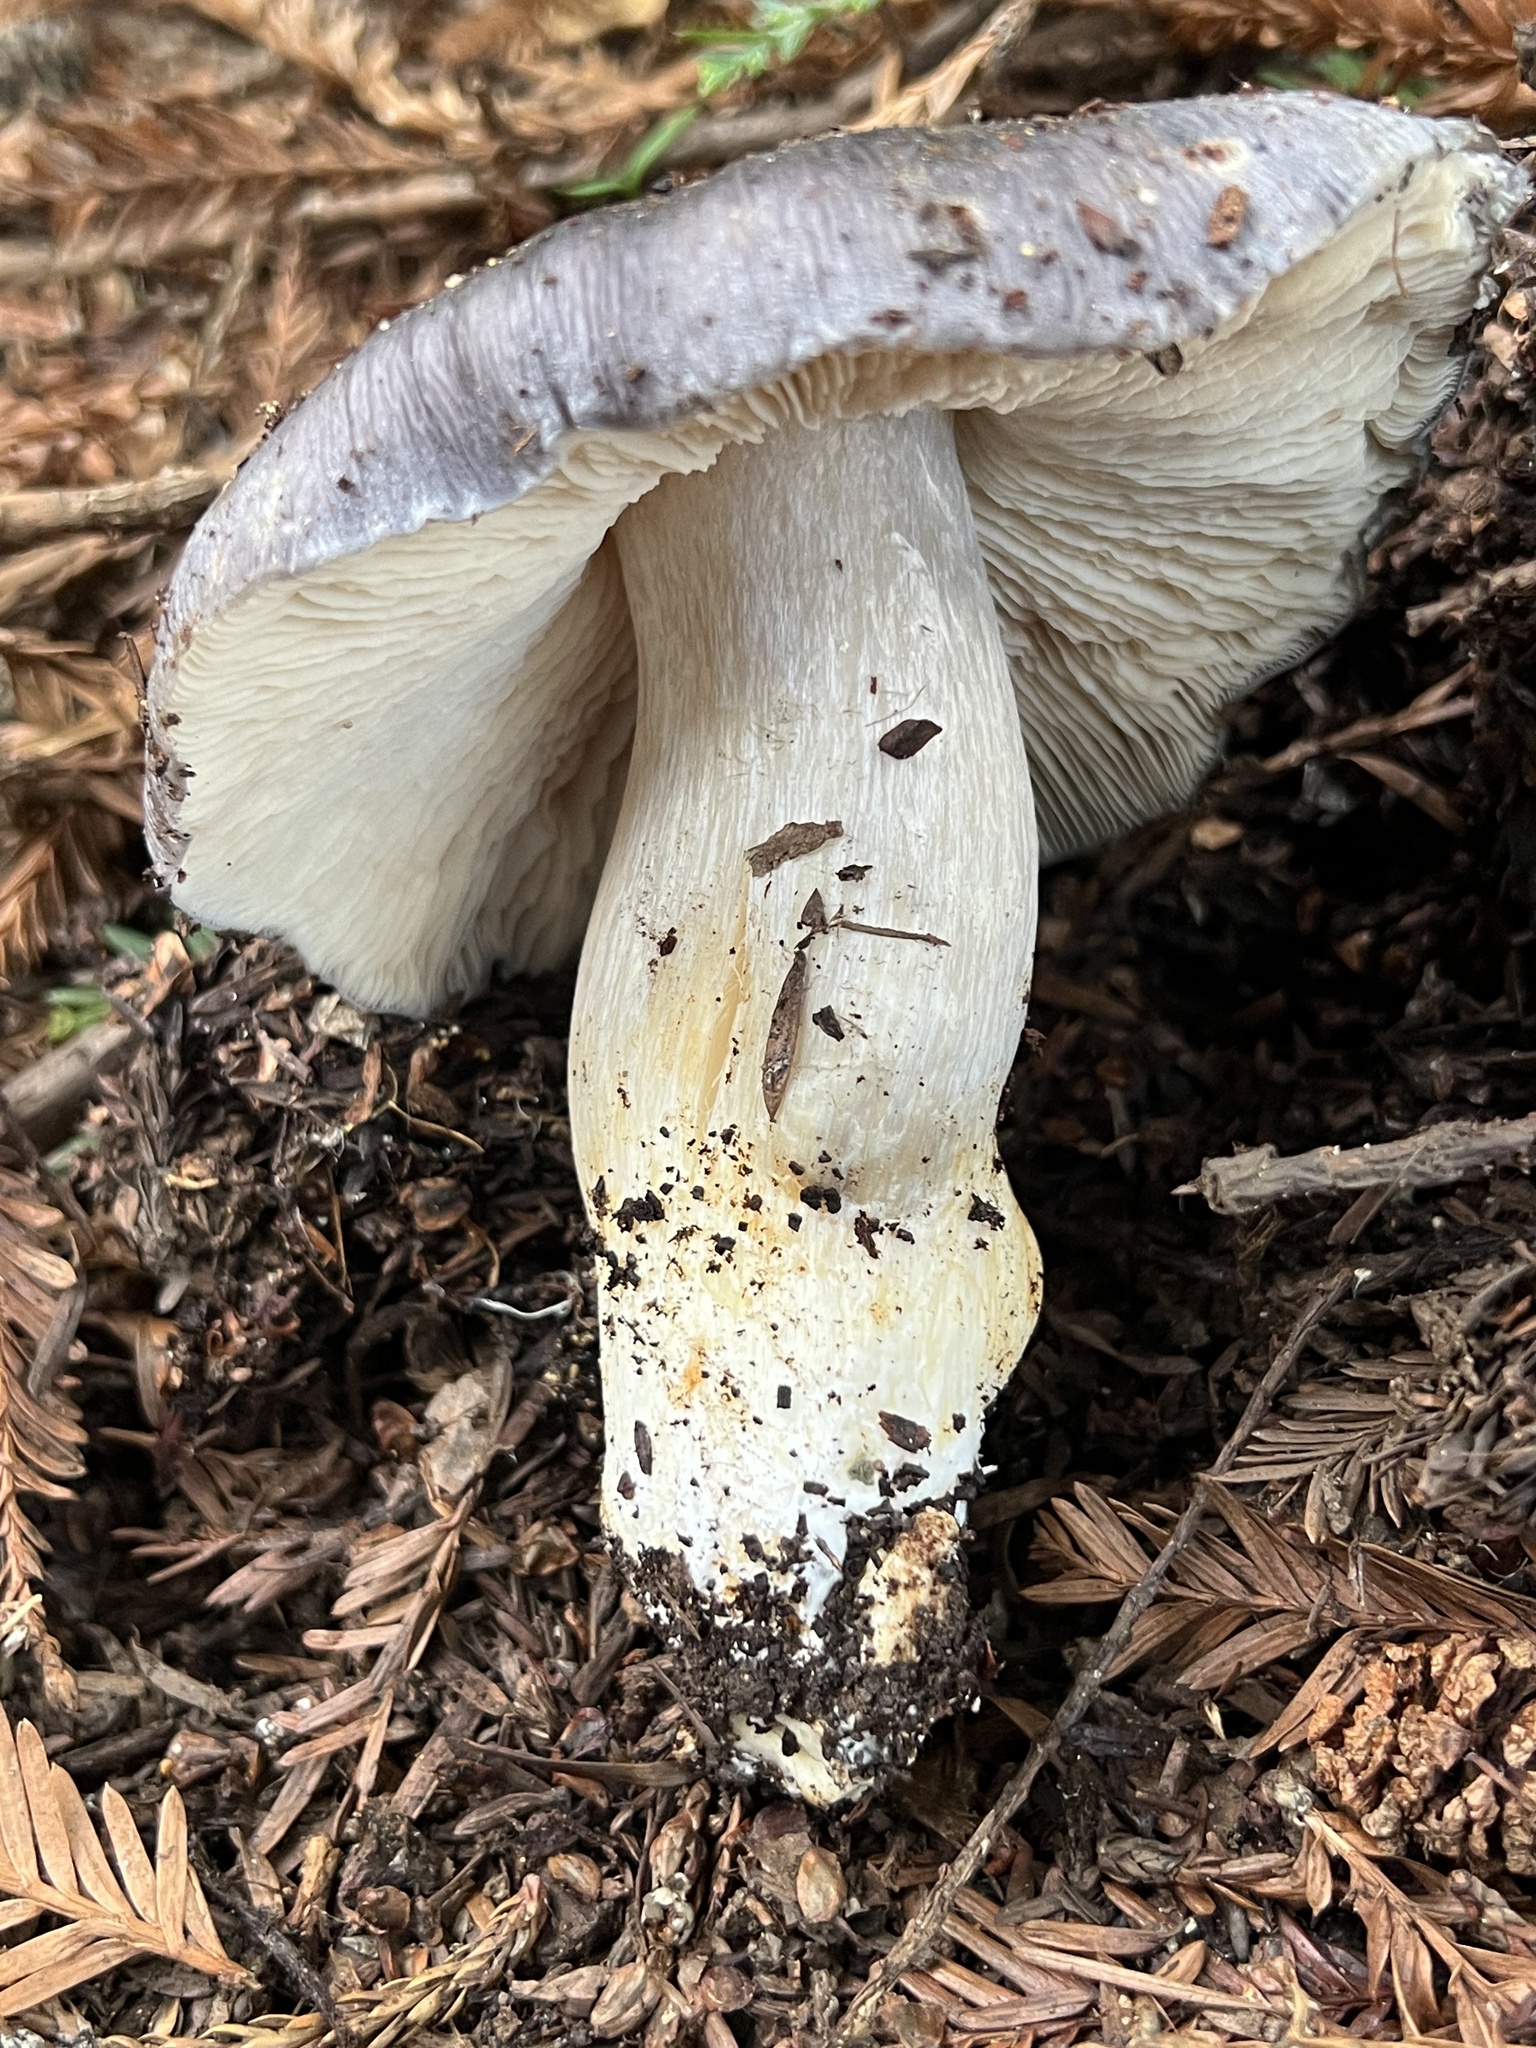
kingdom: Fungi
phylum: Basidiomycota
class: Agaricomycetes
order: Agaricales
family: Entolomataceae
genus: Entoloma
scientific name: Entoloma medianox
